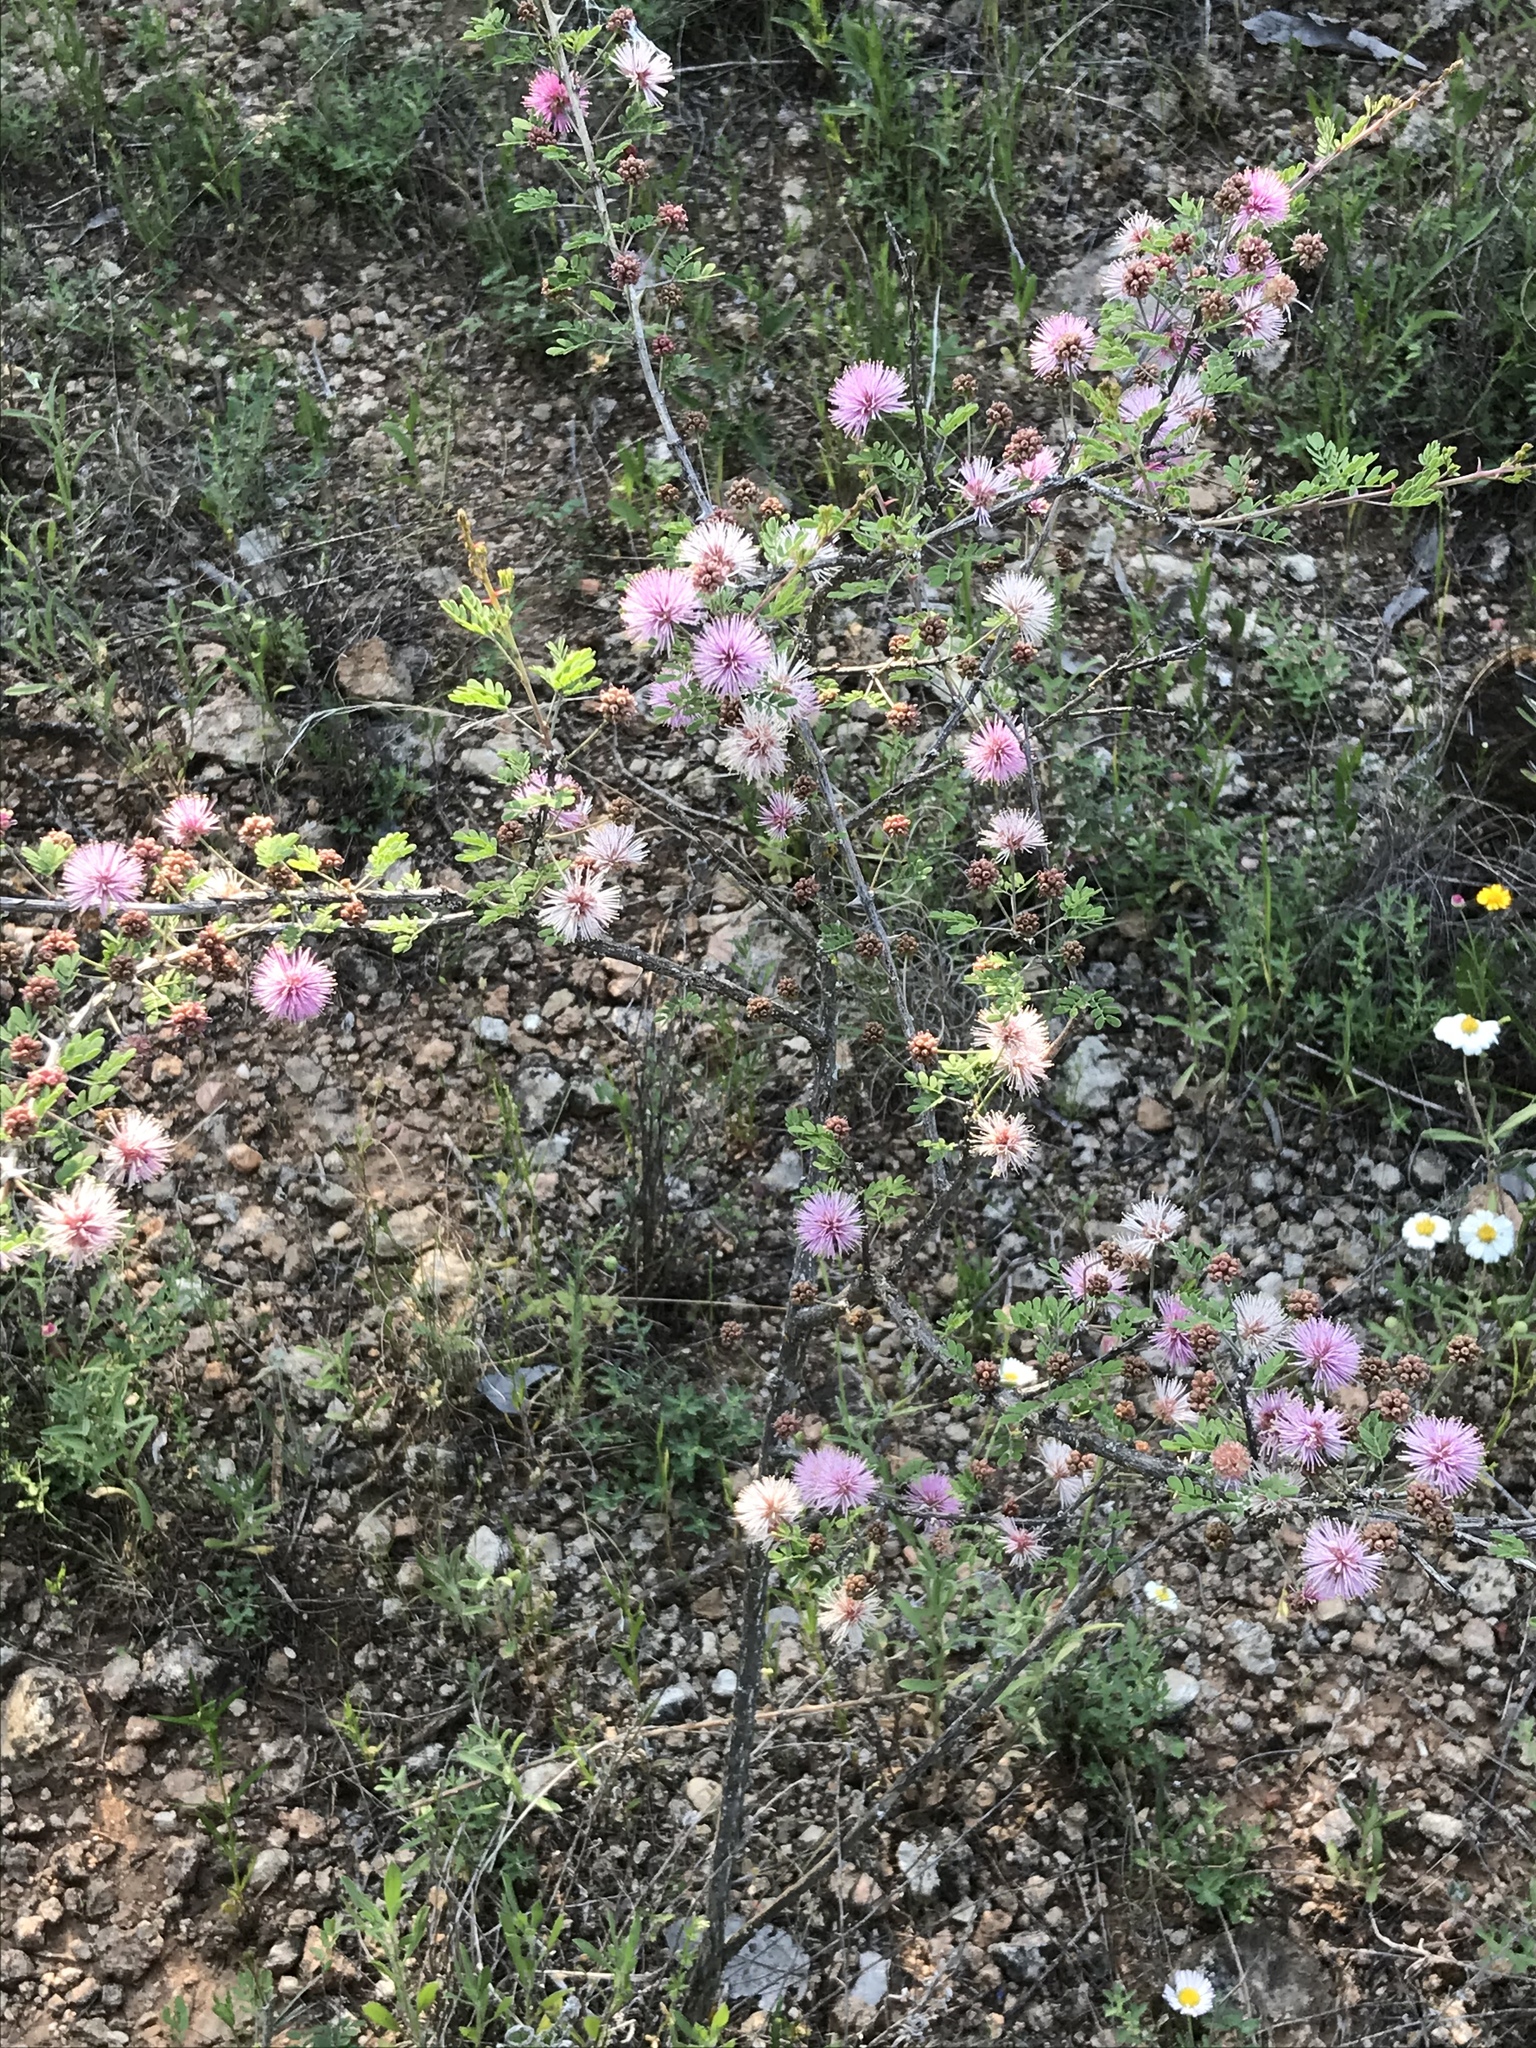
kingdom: Plantae
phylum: Tracheophyta
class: Magnoliopsida
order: Fabales
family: Fabaceae
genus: Mimosa
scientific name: Mimosa borealis
